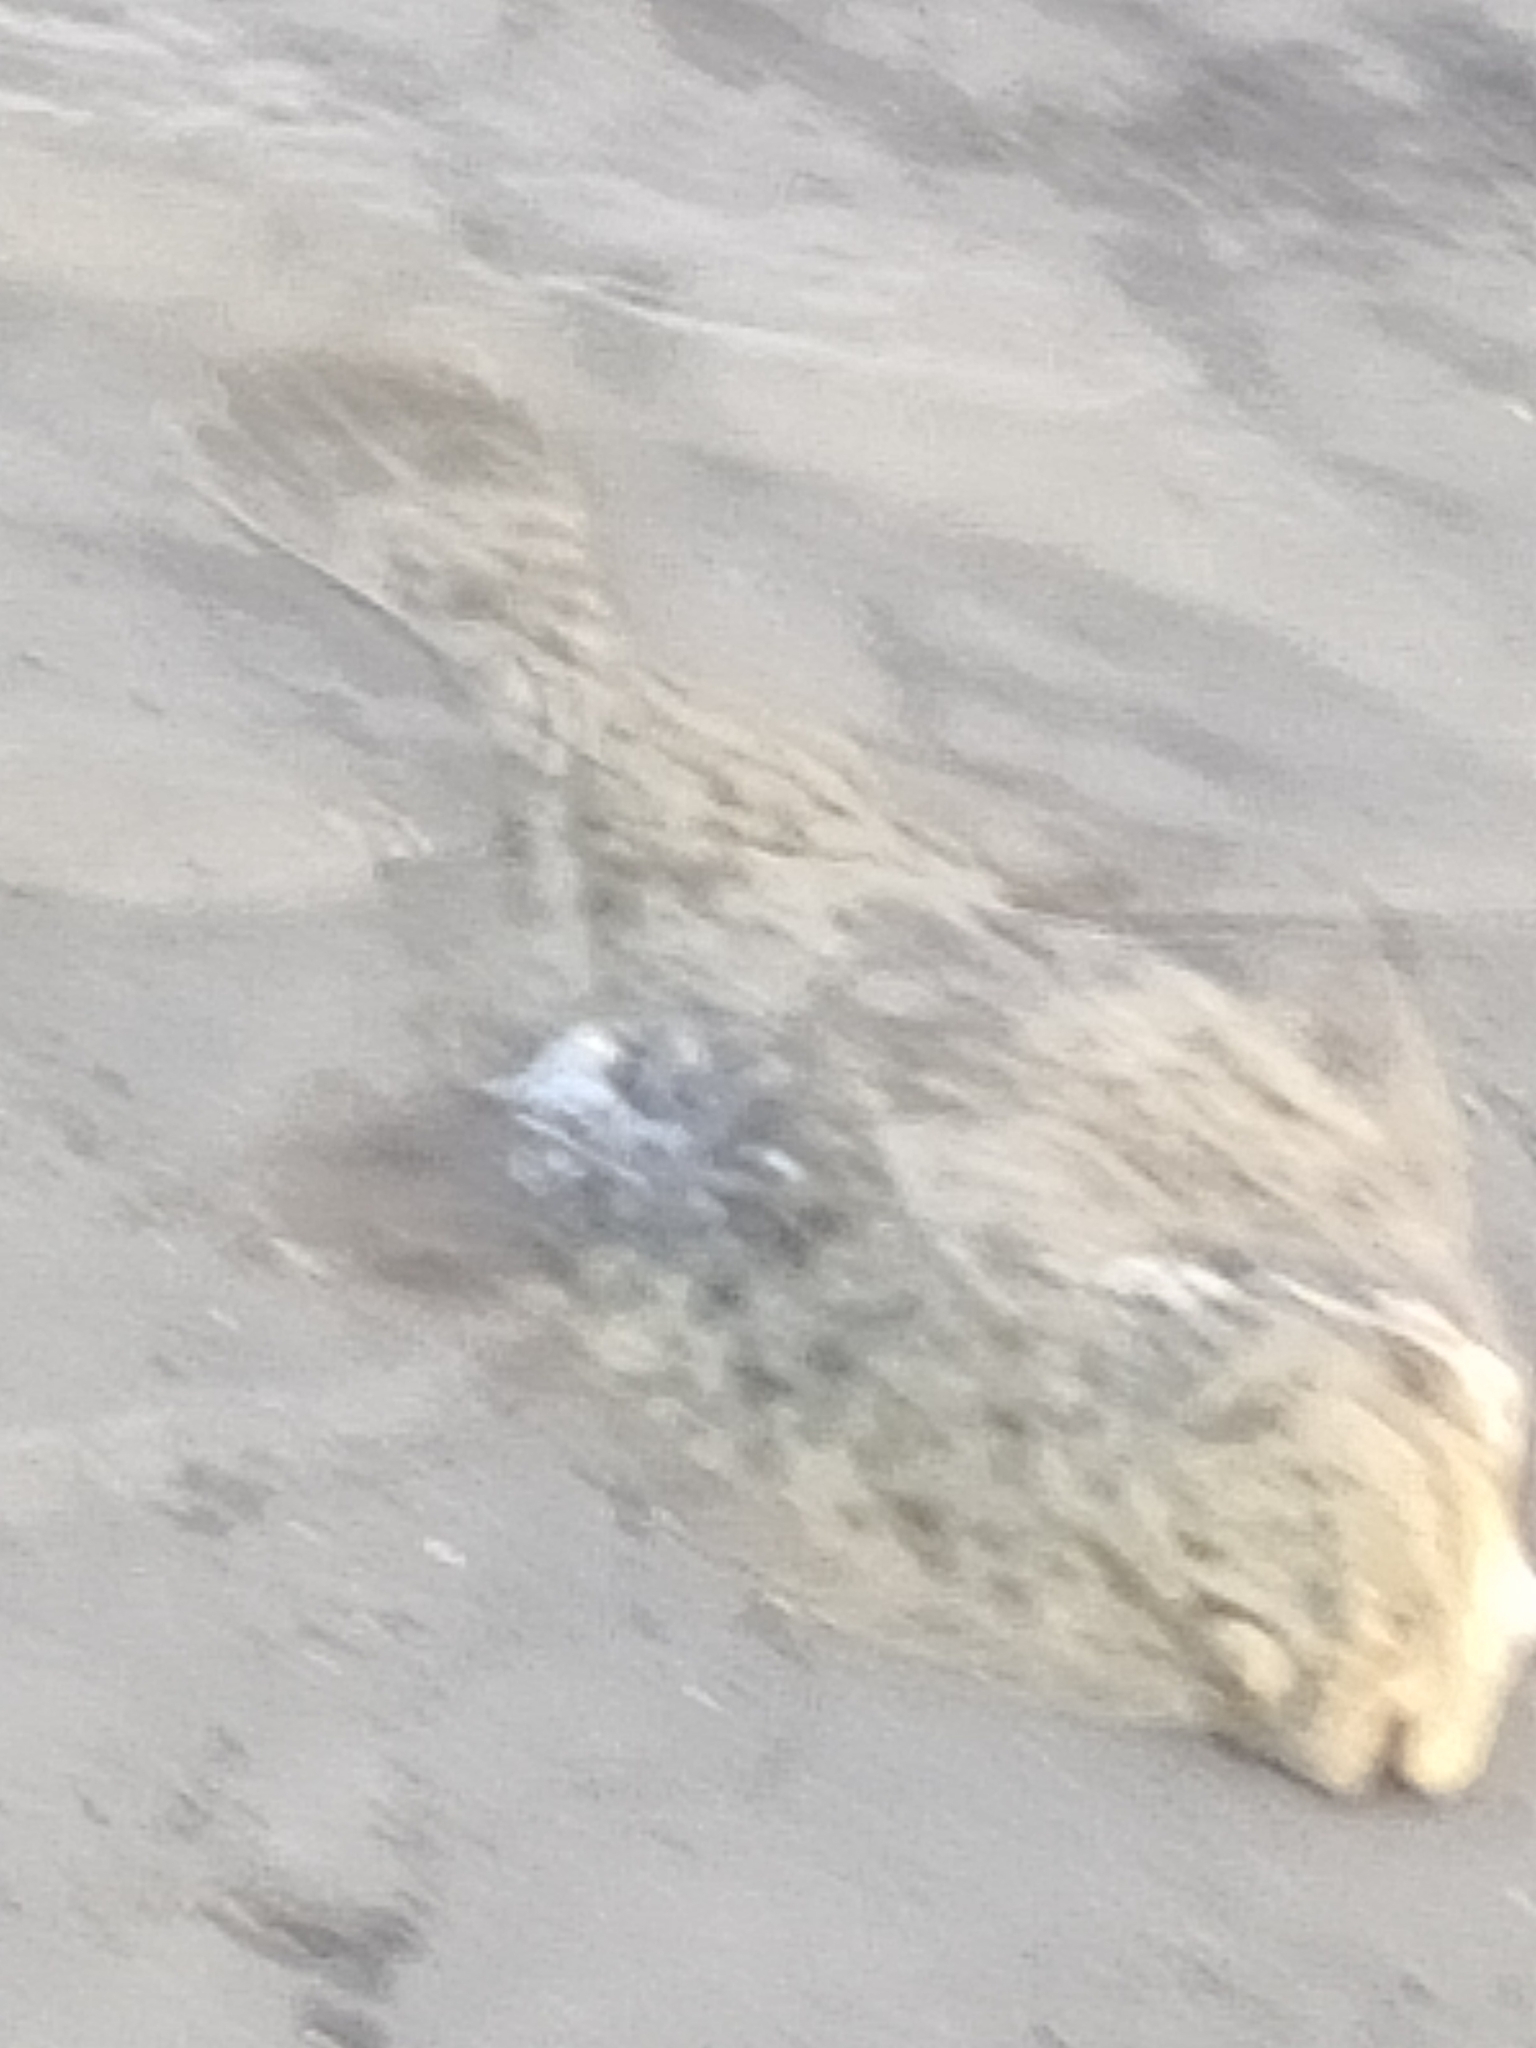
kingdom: Animalia
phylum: Chordata
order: Pleuronectiformes
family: Pleuronectidae
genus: Platichthys
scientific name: Platichthys flesus
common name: European flounder
